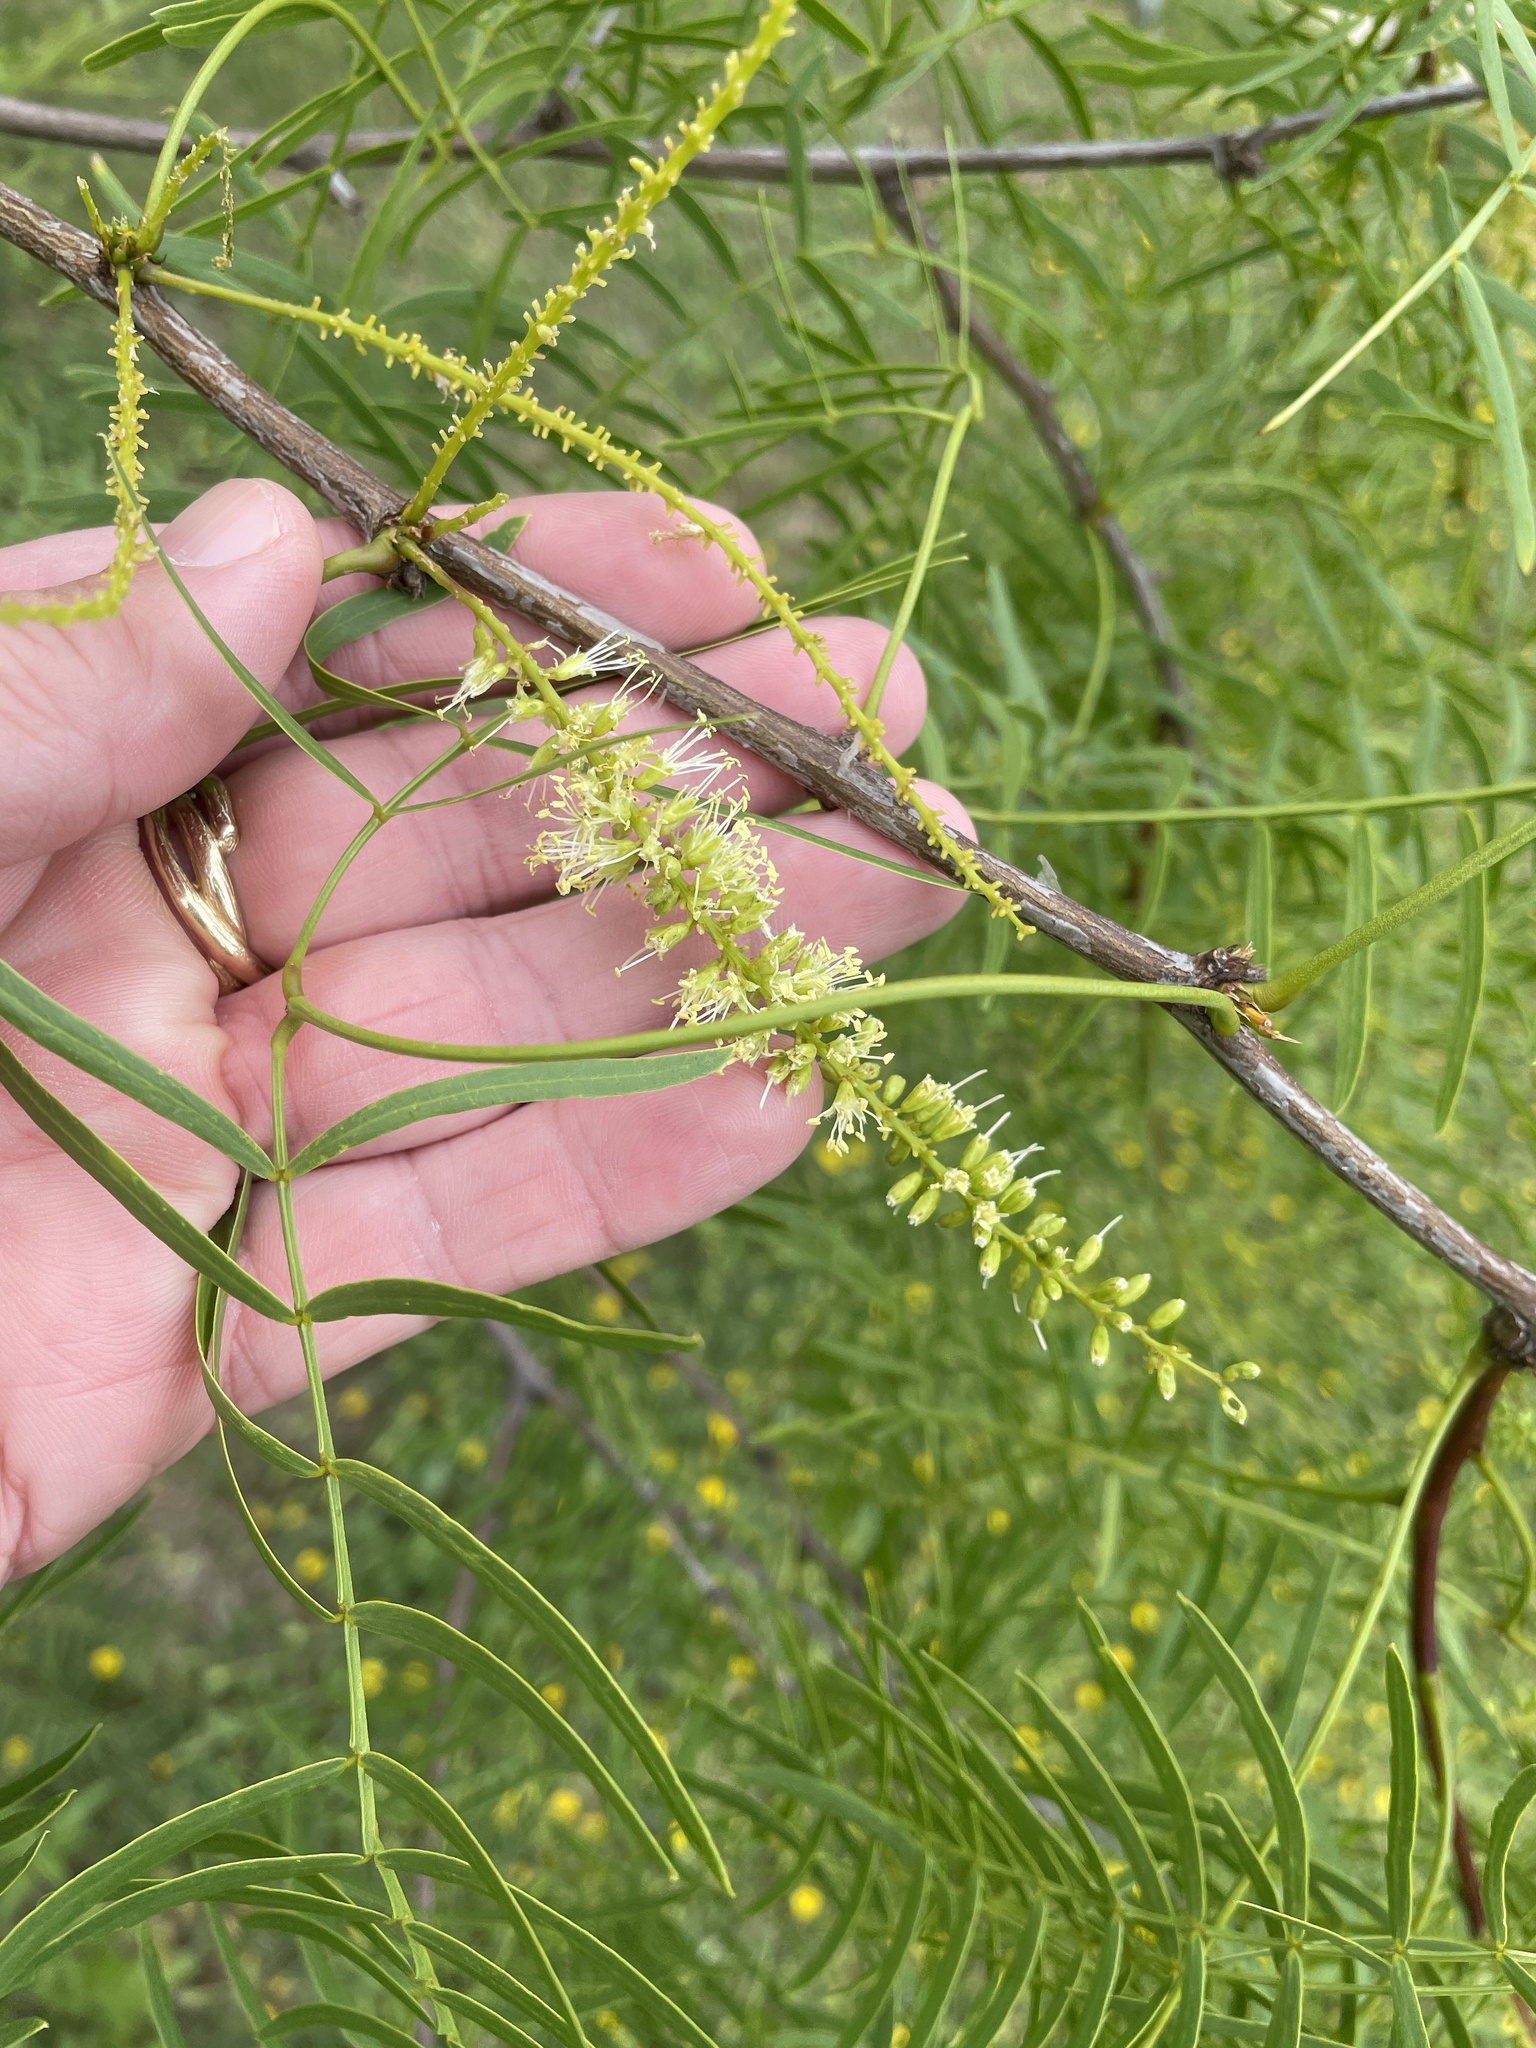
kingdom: Plantae
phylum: Tracheophyta
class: Magnoliopsida
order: Fabales
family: Fabaceae
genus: Prosopis
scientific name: Prosopis glandulosa
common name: Honey mesquite
